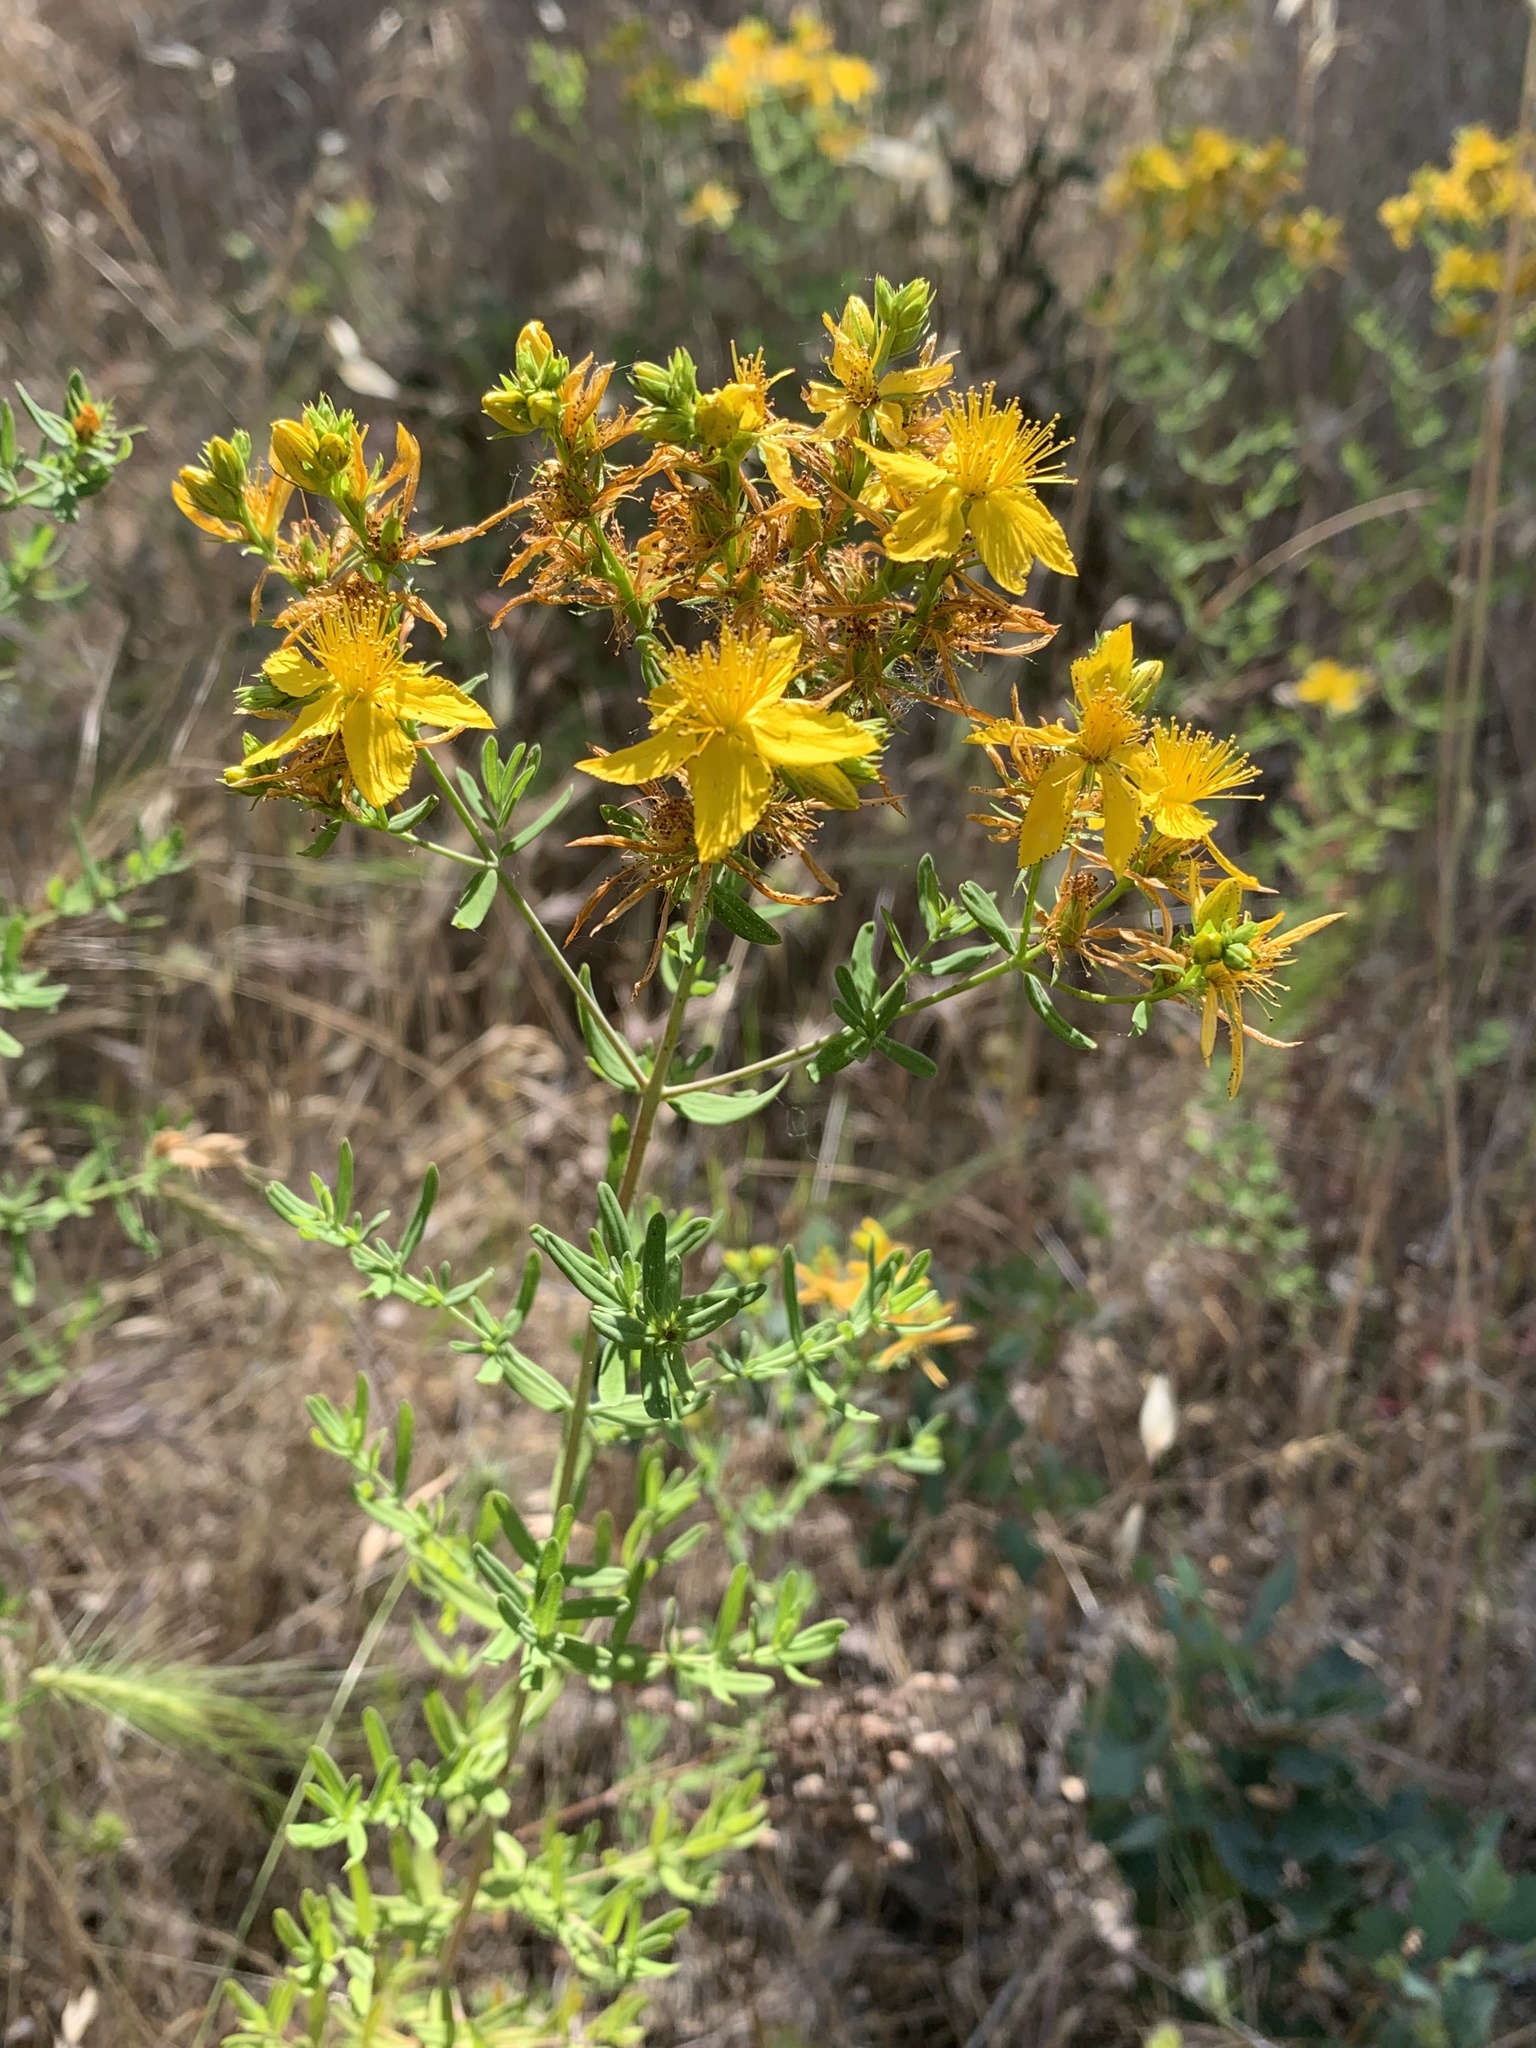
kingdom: Plantae
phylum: Tracheophyta
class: Magnoliopsida
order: Malpighiales
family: Hypericaceae
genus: Hypericum
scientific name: Hypericum perforatum
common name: Common st. johnswort
